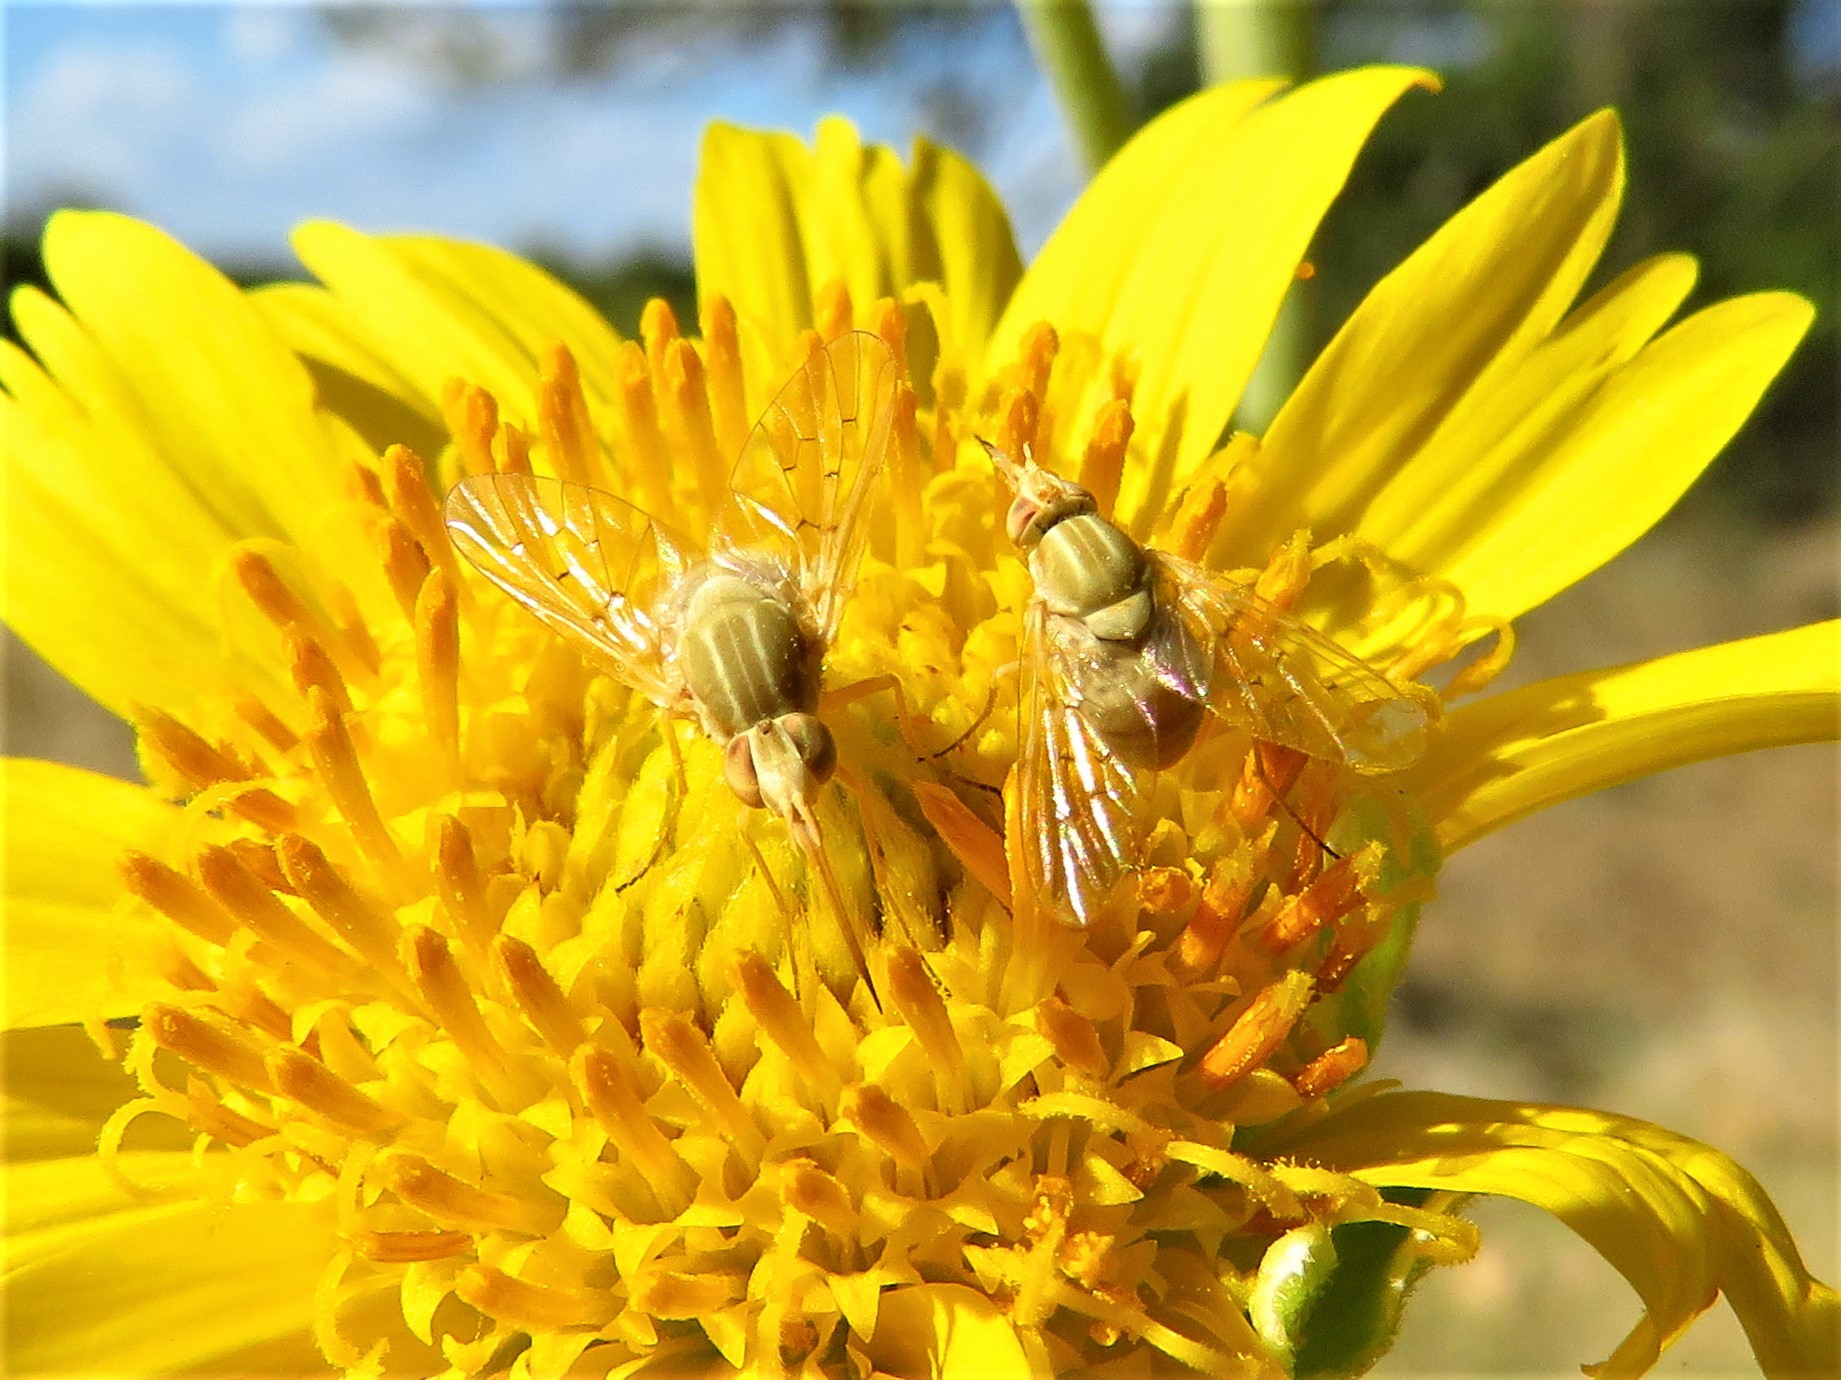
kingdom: Animalia
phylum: Arthropoda
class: Insecta
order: Diptera
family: Bombyliidae
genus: Poecilognathus
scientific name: Poecilognathus unimaculatus
